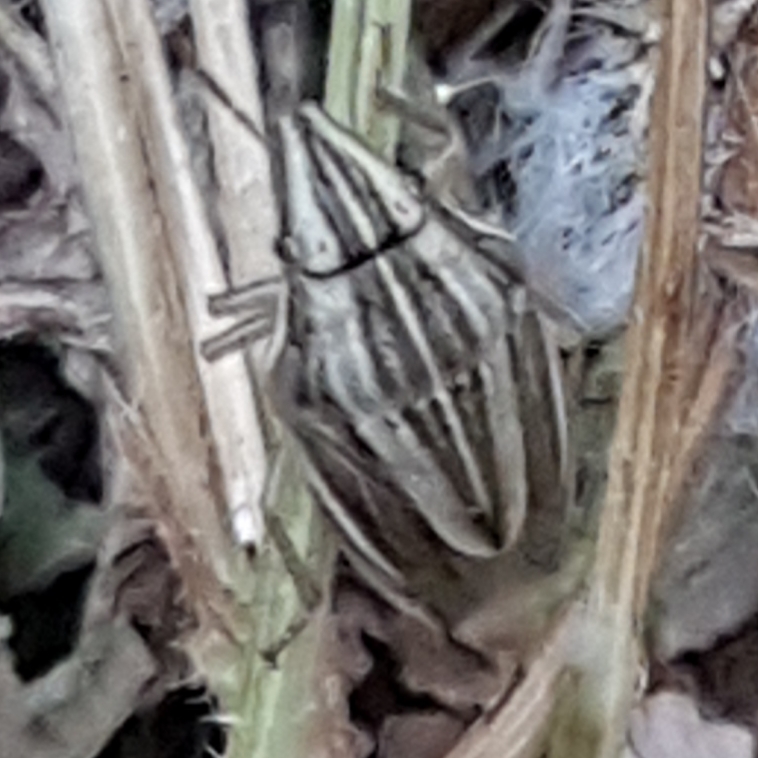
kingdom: Animalia
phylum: Arthropoda
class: Insecta
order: Hemiptera
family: Pentatomidae
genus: Aelia
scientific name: Aelia acuminata
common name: Bishop's mitre
